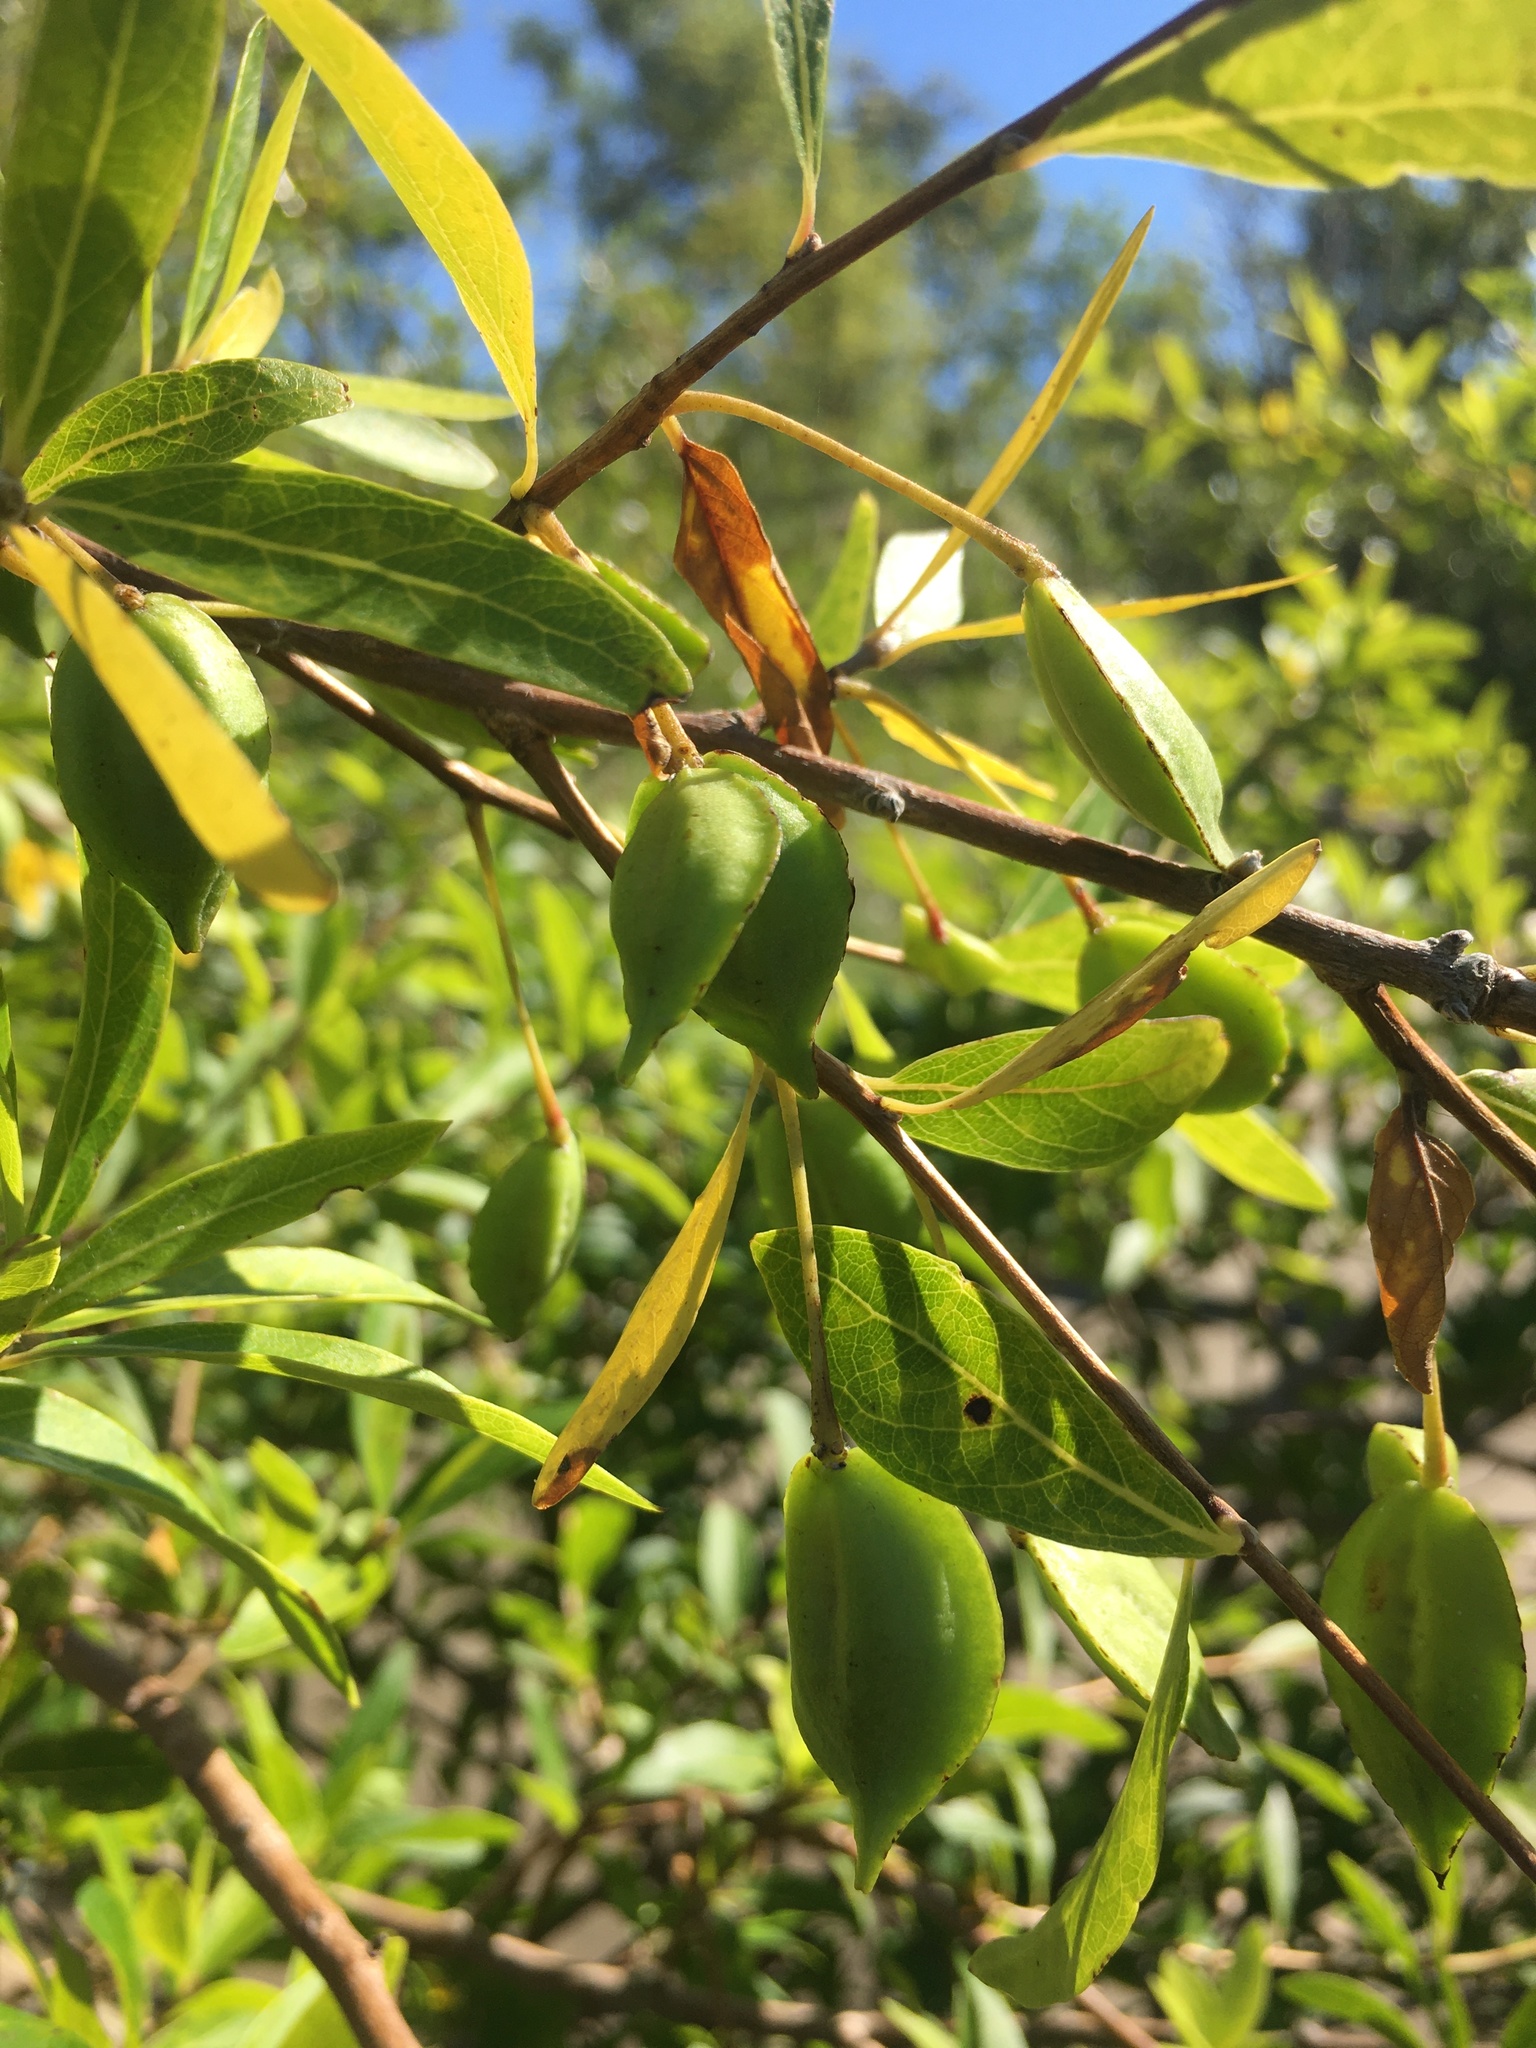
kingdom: Plantae
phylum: Tracheophyta
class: Magnoliopsida
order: Myrtales
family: Combretaceae
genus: Terminalia
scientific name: Terminalia australis
